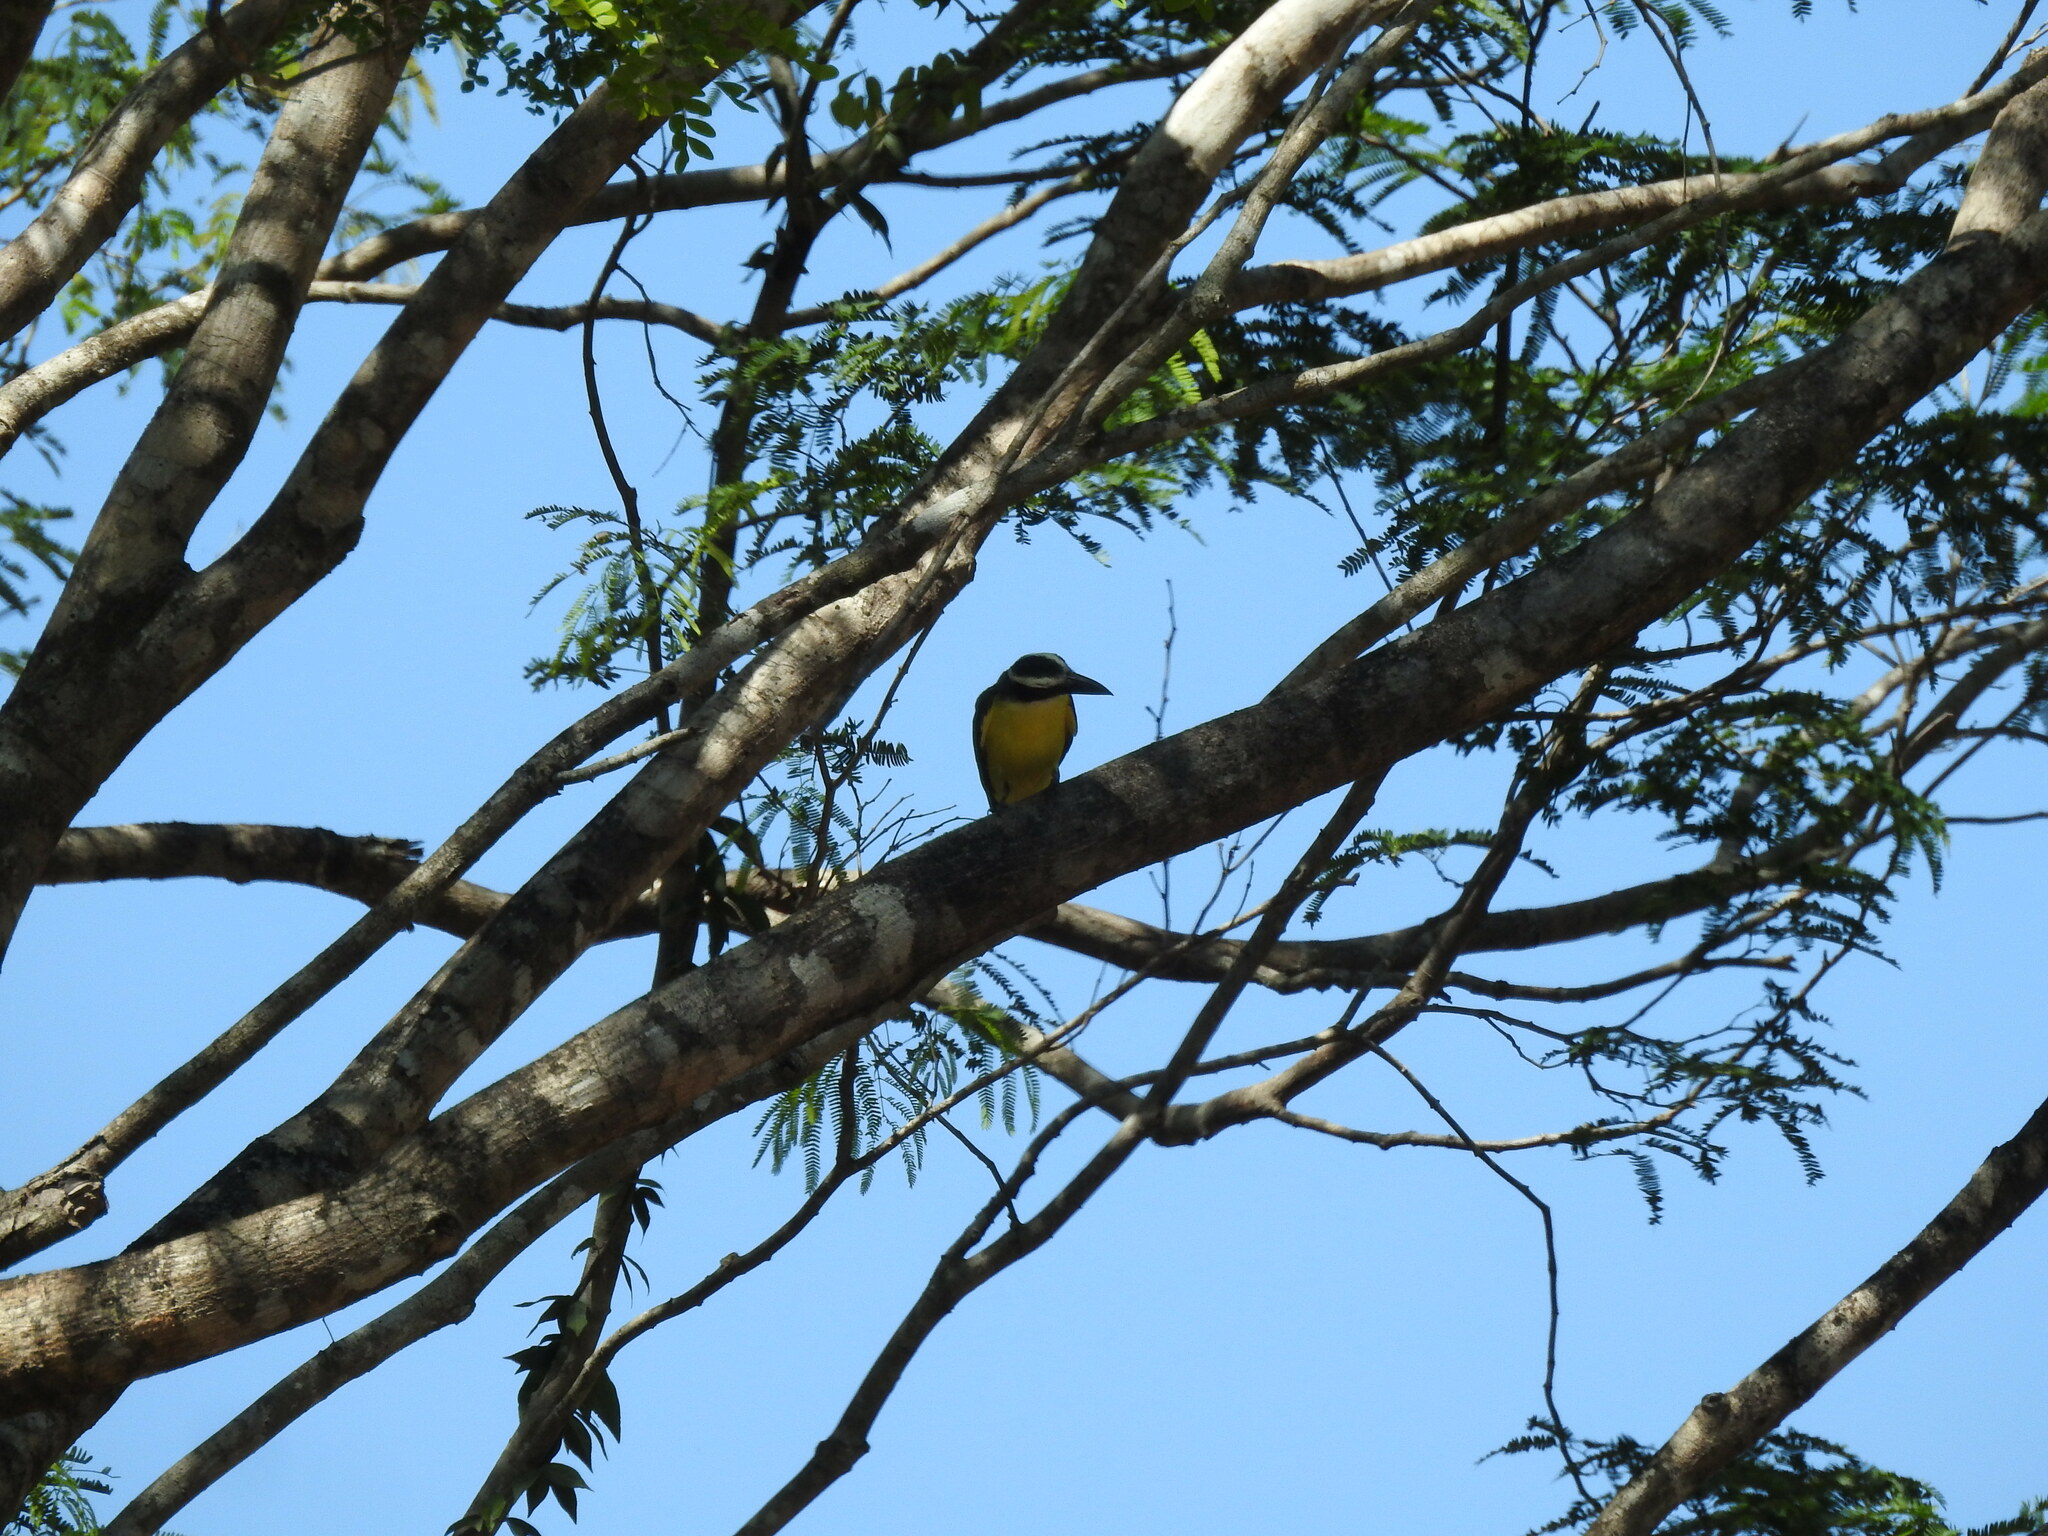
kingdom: Animalia
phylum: Chordata
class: Aves
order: Passeriformes
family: Tyrannidae
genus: Megarynchus
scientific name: Megarynchus pitangua
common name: Boat-billed flycatcher
